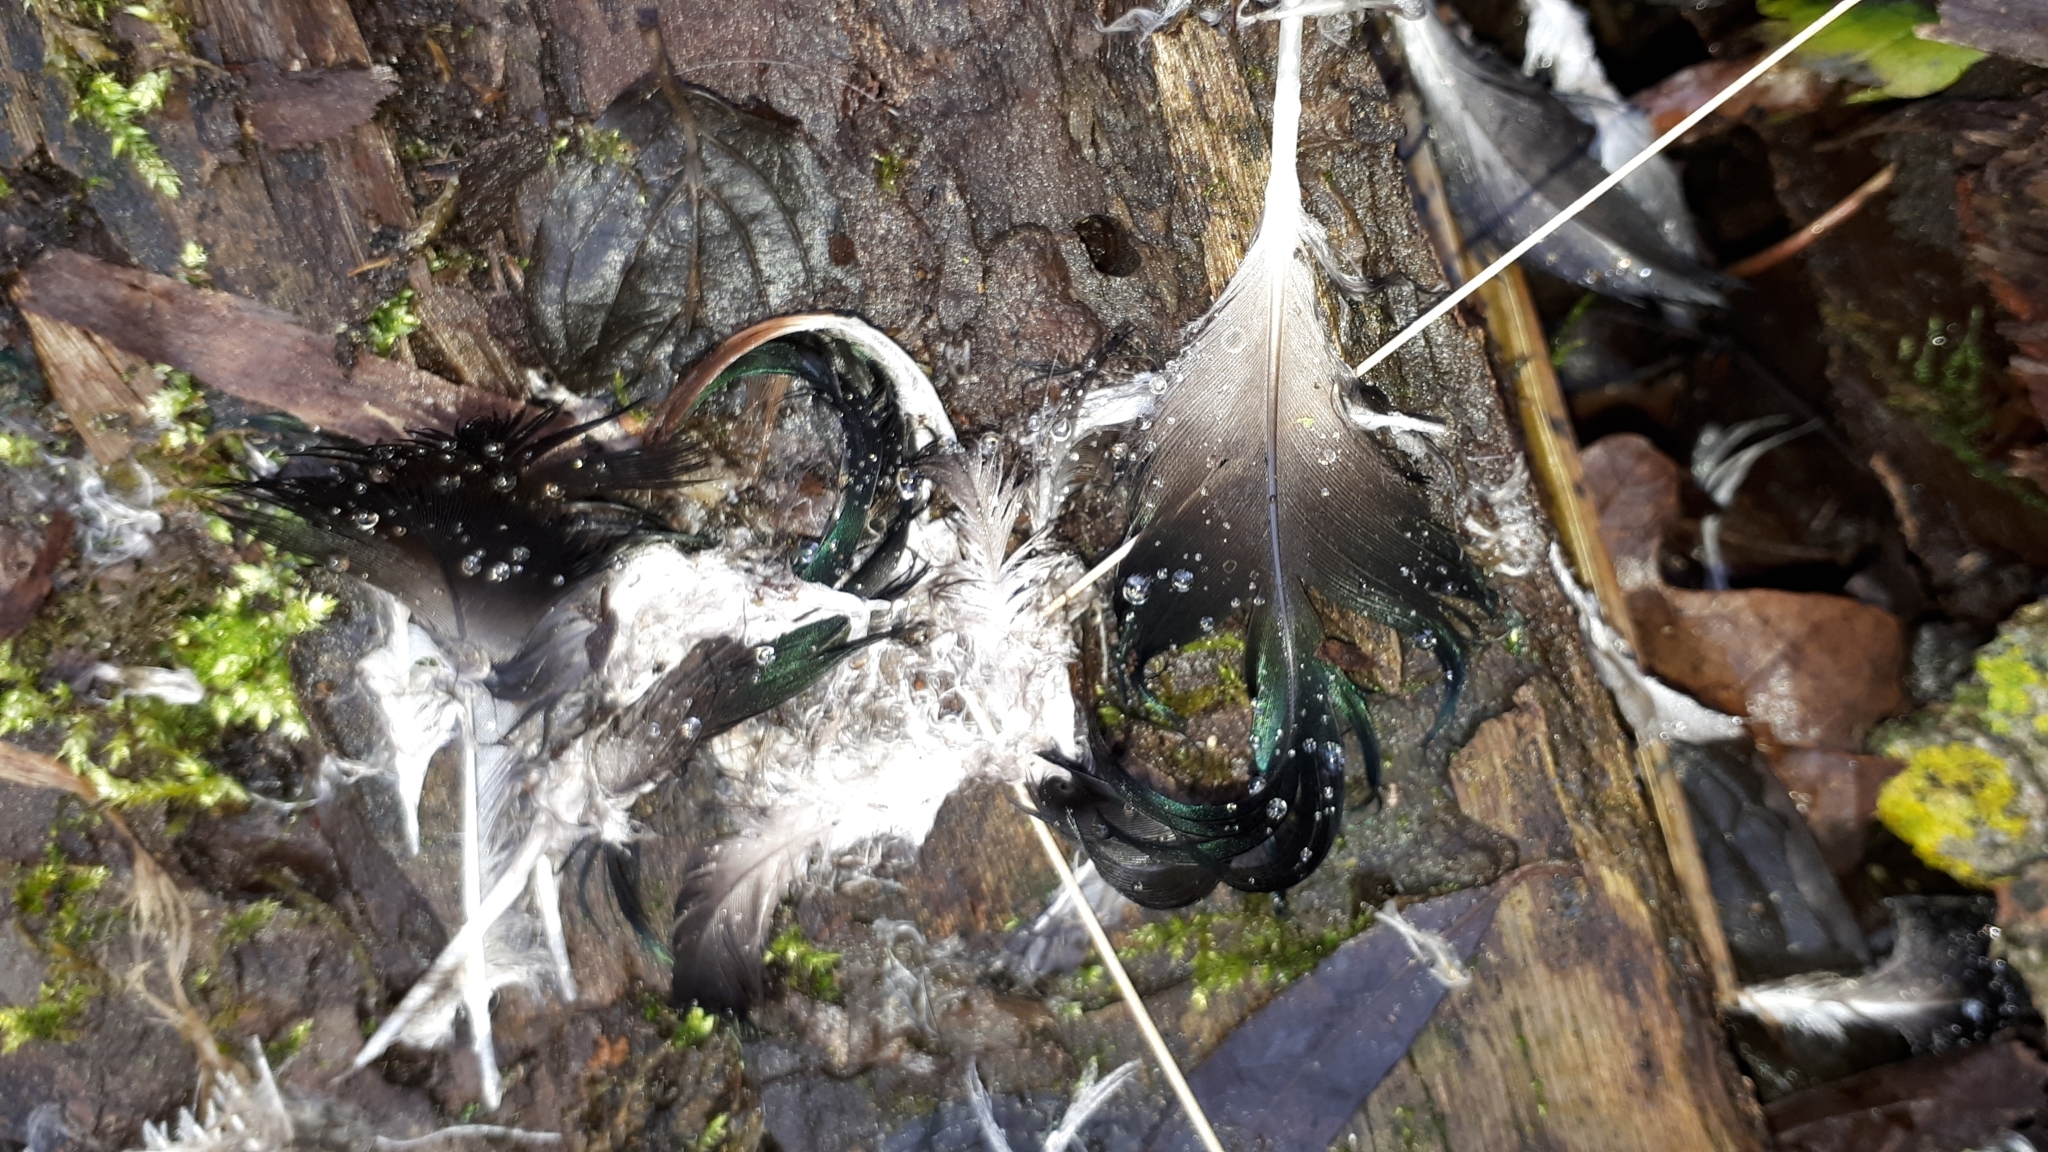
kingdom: Animalia
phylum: Chordata
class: Aves
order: Anseriformes
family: Anatidae
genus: Anas
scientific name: Anas platyrhynchos
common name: Mallard
